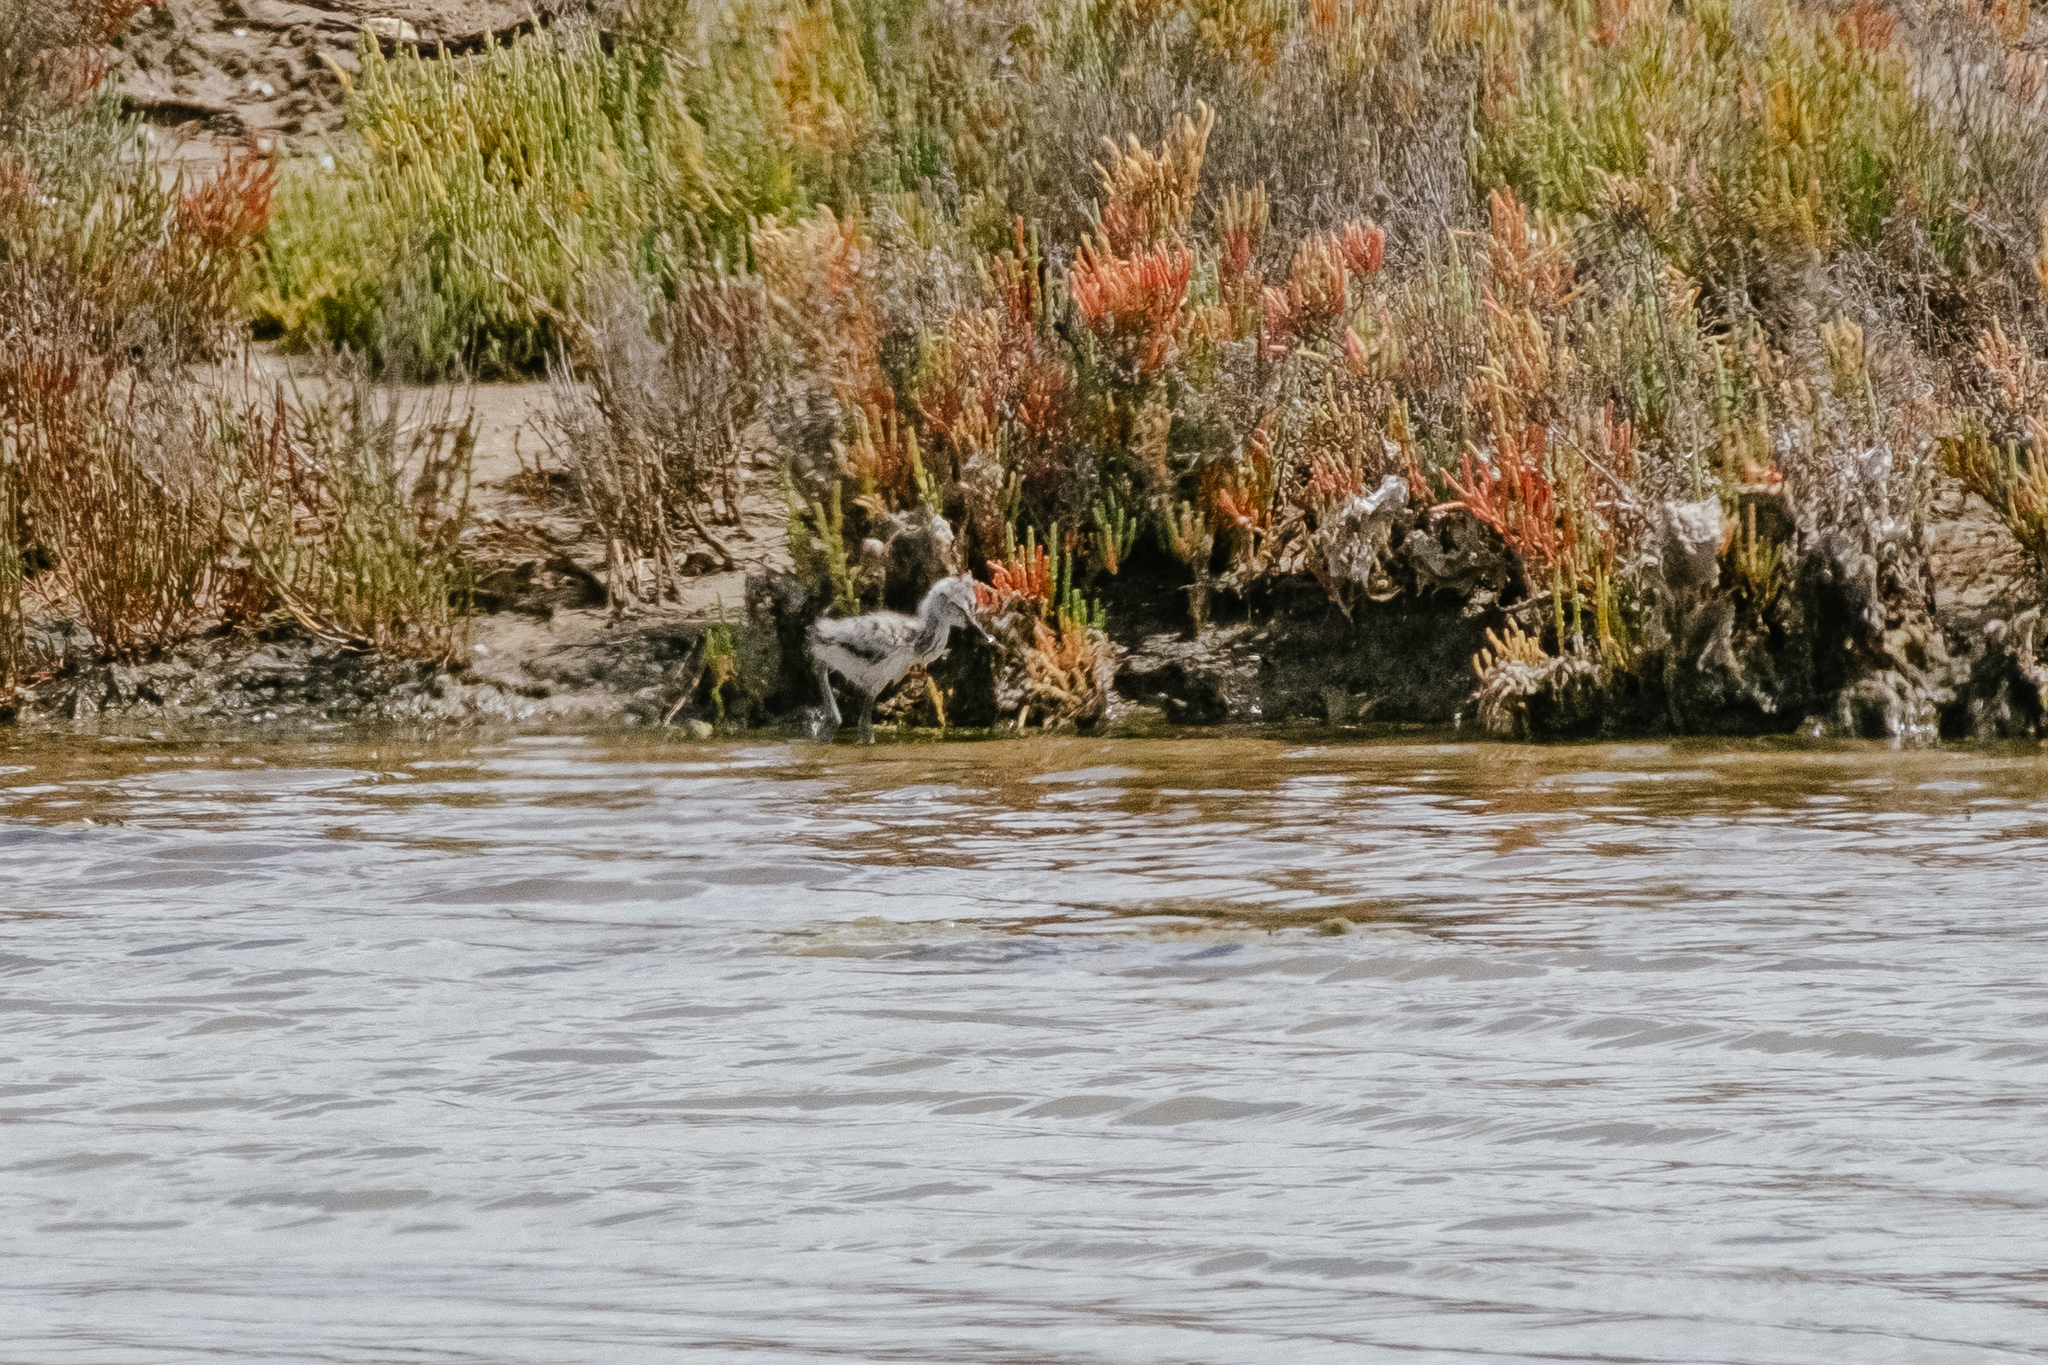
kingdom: Animalia
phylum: Chordata
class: Aves
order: Charadriiformes
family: Recurvirostridae
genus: Recurvirostra
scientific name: Recurvirostra avosetta
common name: Pied avocet
